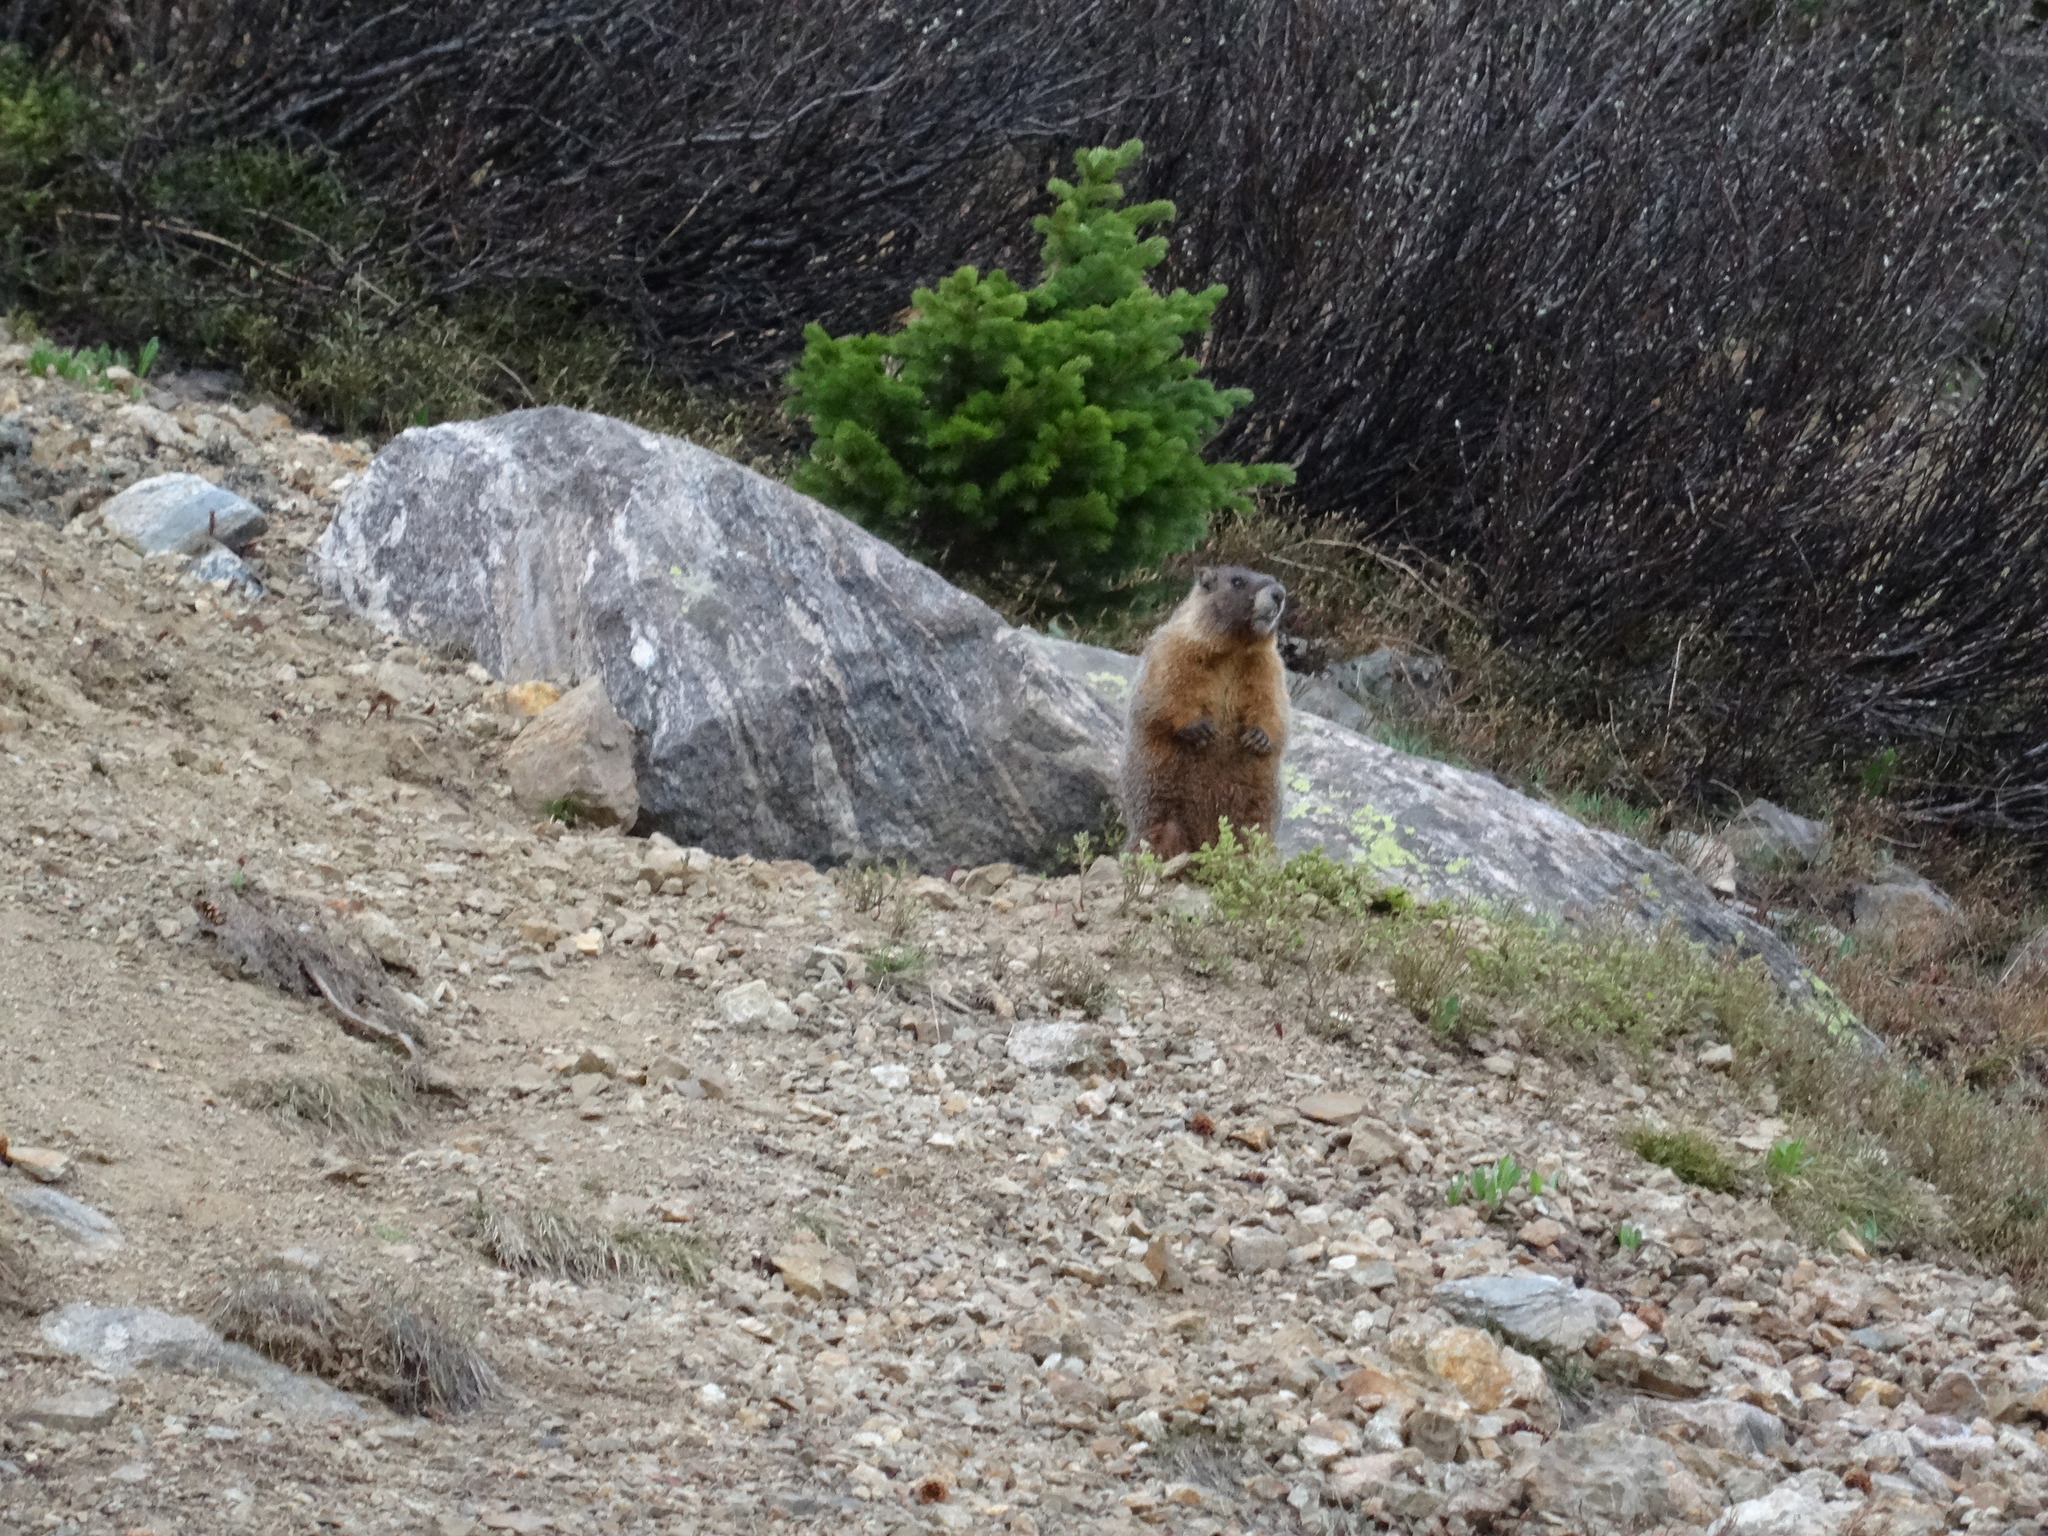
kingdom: Animalia
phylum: Chordata
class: Mammalia
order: Rodentia
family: Sciuridae
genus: Marmota
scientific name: Marmota flaviventris
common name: Yellow-bellied marmot
